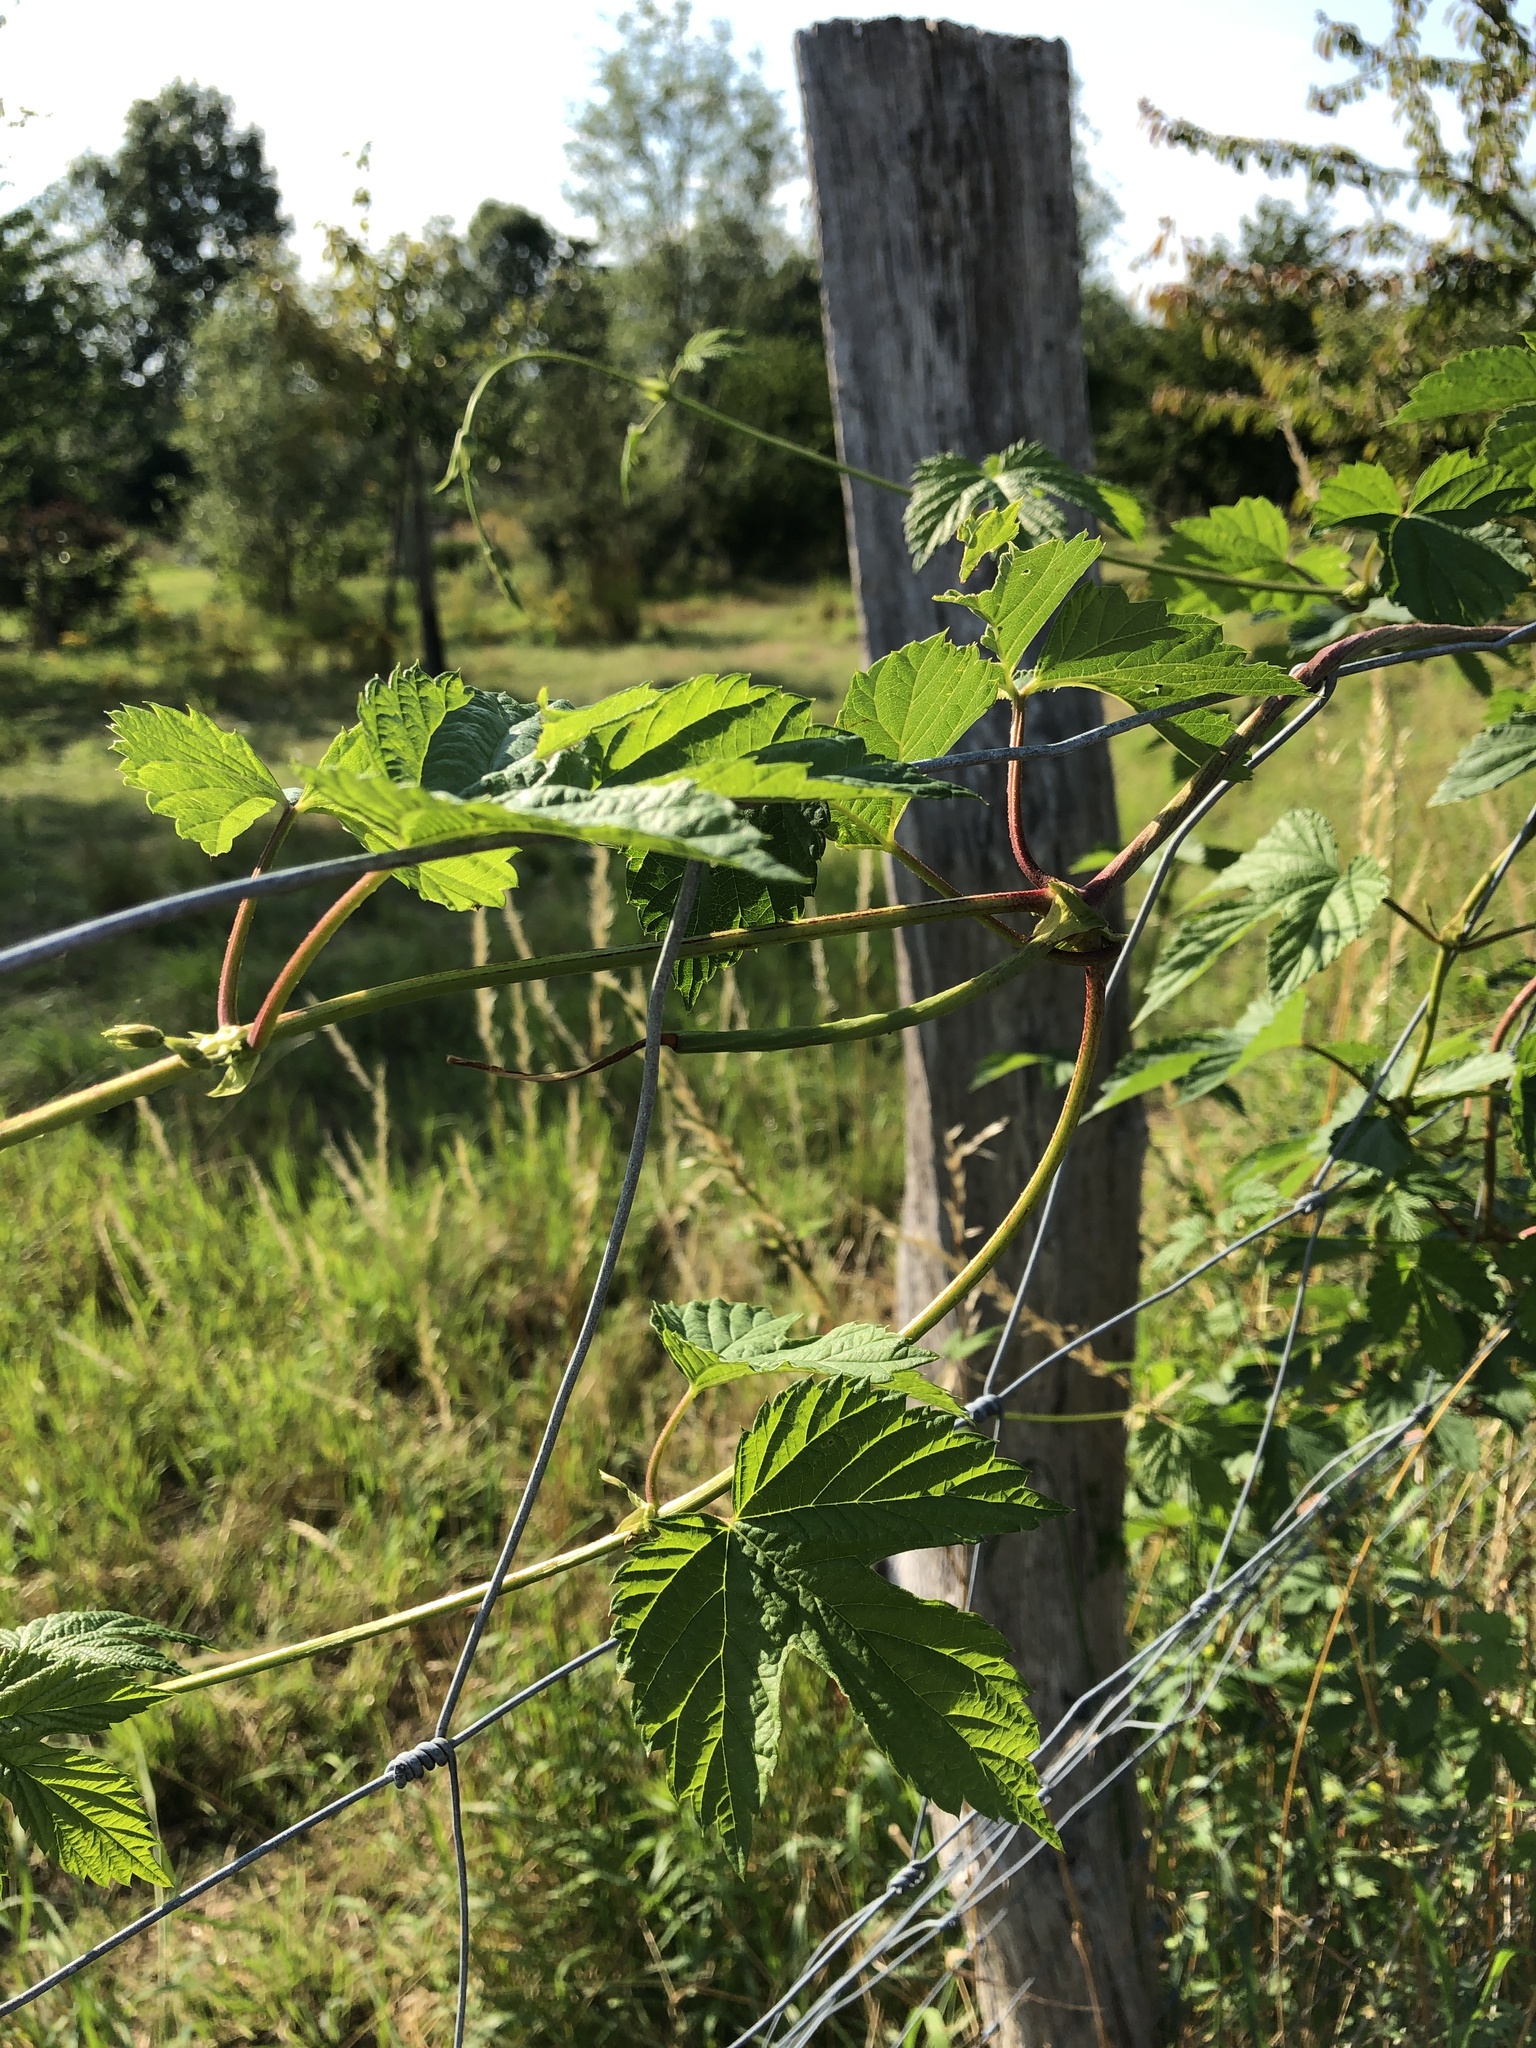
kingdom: Plantae
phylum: Tracheophyta
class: Magnoliopsida
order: Rosales
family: Cannabaceae
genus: Humulus
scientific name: Humulus lupulus
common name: Hop
